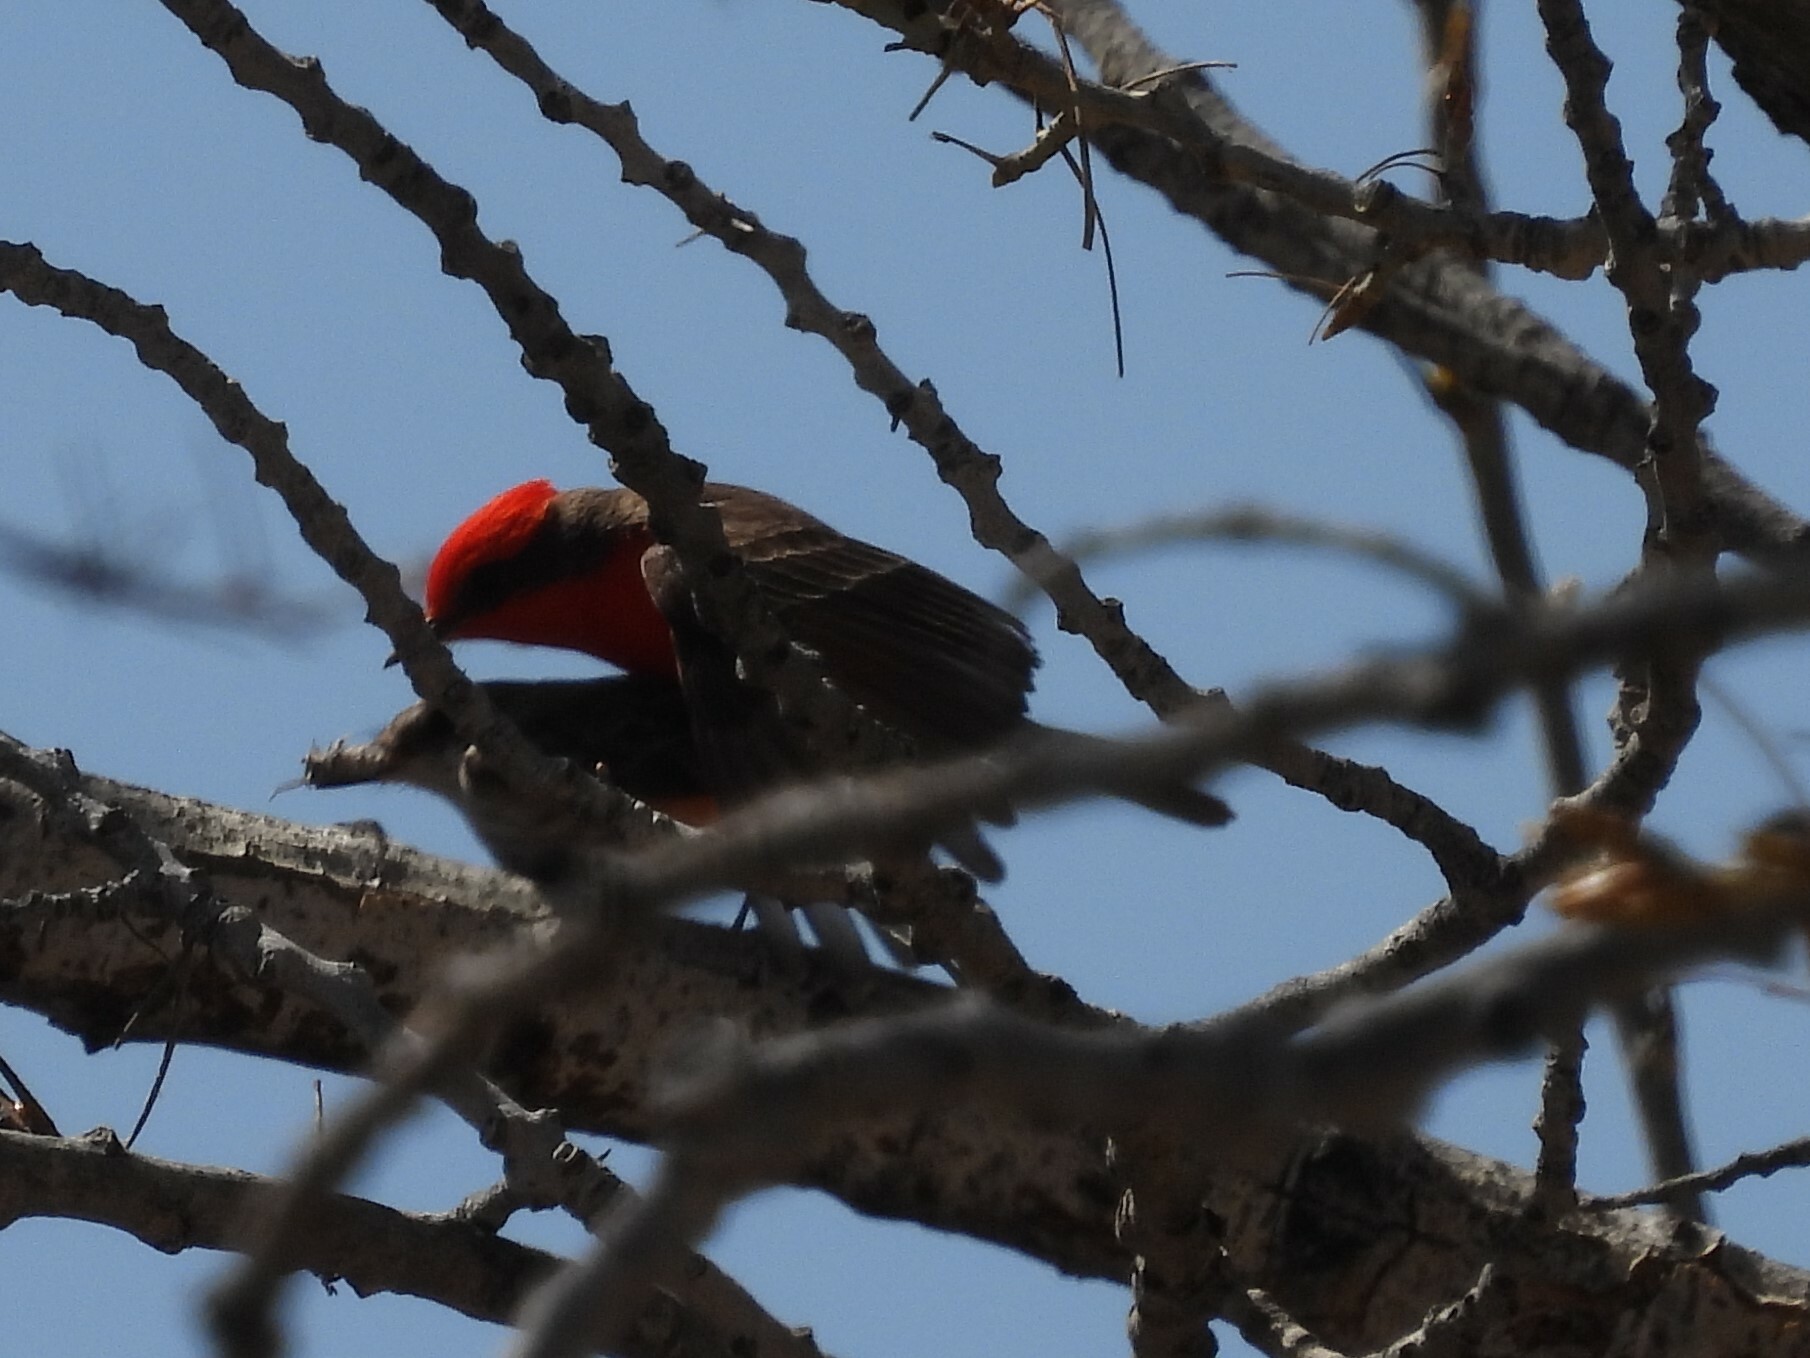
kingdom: Animalia
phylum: Chordata
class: Aves
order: Passeriformes
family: Tyrannidae
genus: Pyrocephalus
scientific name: Pyrocephalus rubinus
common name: Vermilion flycatcher
